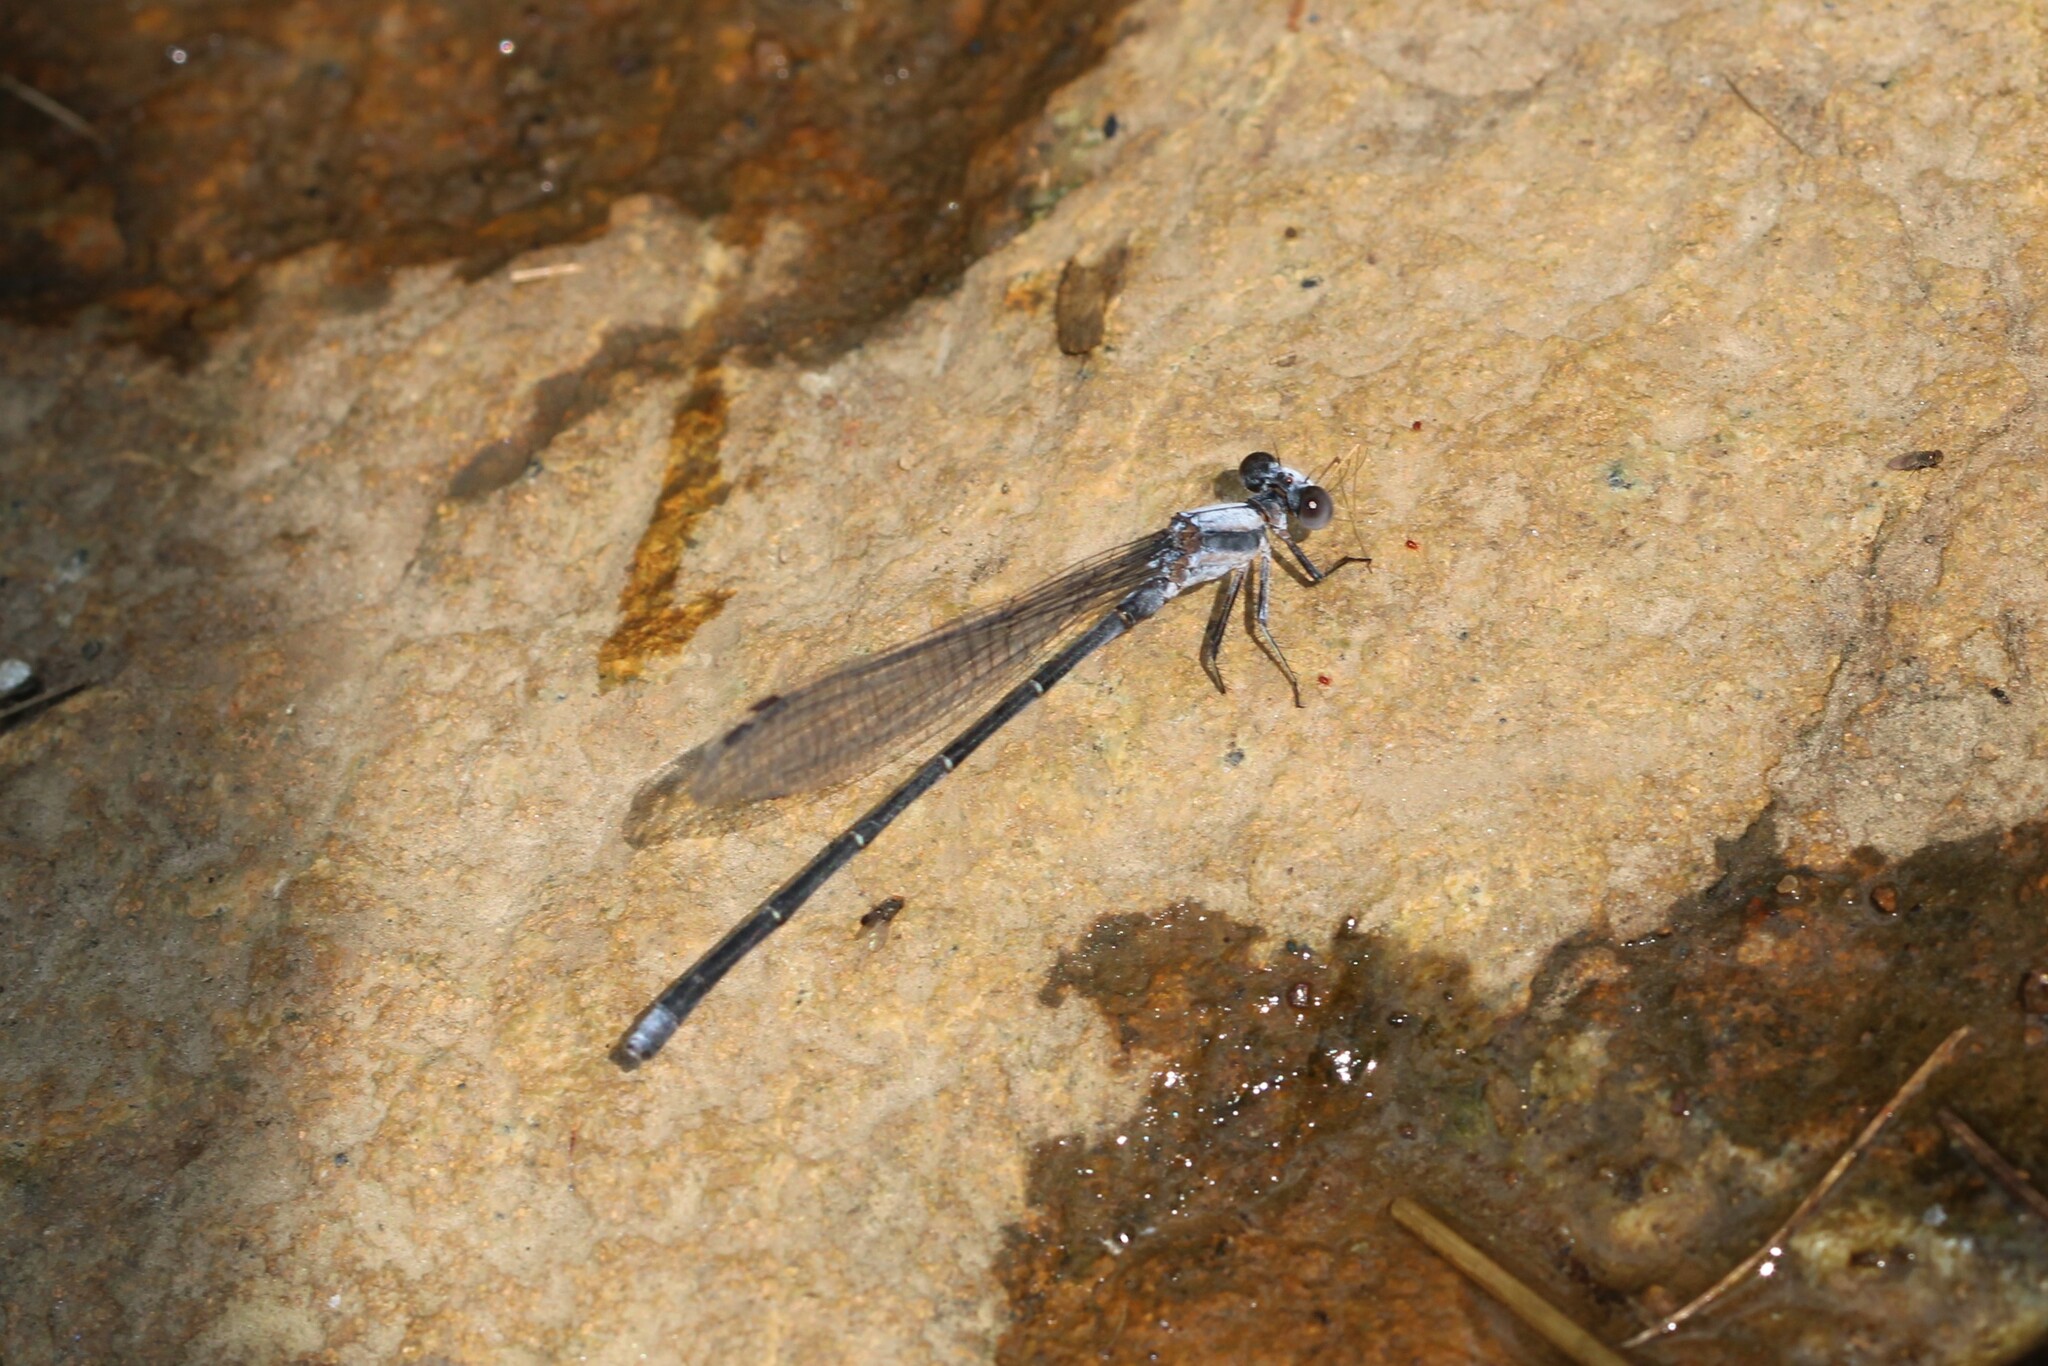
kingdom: Animalia
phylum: Arthropoda
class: Insecta
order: Odonata
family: Coenagrionidae
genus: Argia
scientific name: Argia moesta
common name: Powdered dancer
